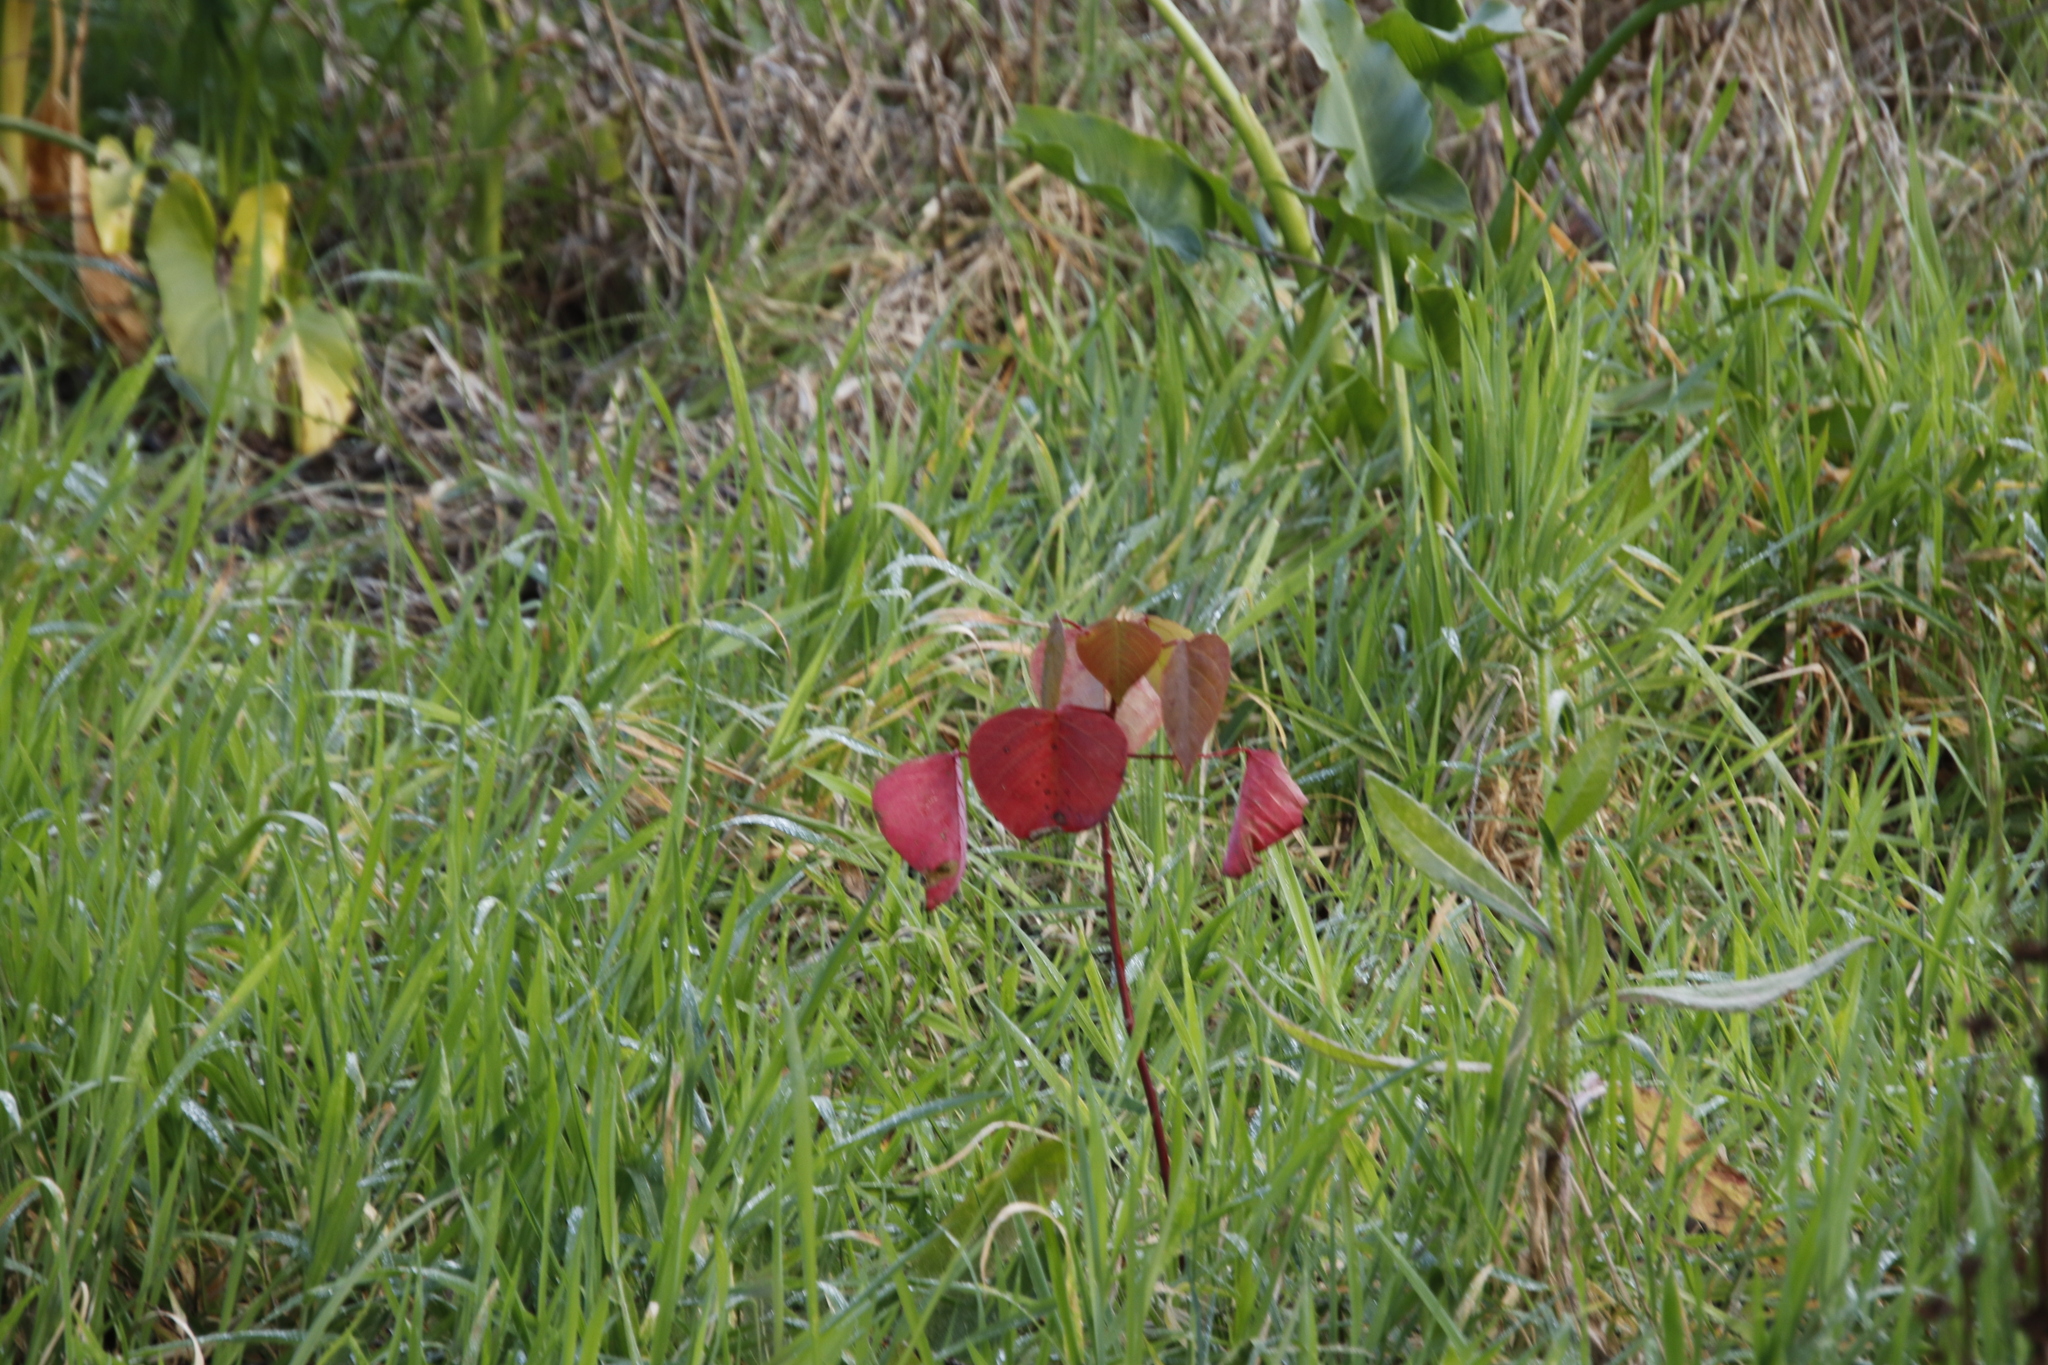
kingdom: Plantae
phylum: Tracheophyta
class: Magnoliopsida
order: Malpighiales
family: Euphorbiaceae
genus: Homalanthus
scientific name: Homalanthus populifolius
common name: Queensland poplar
